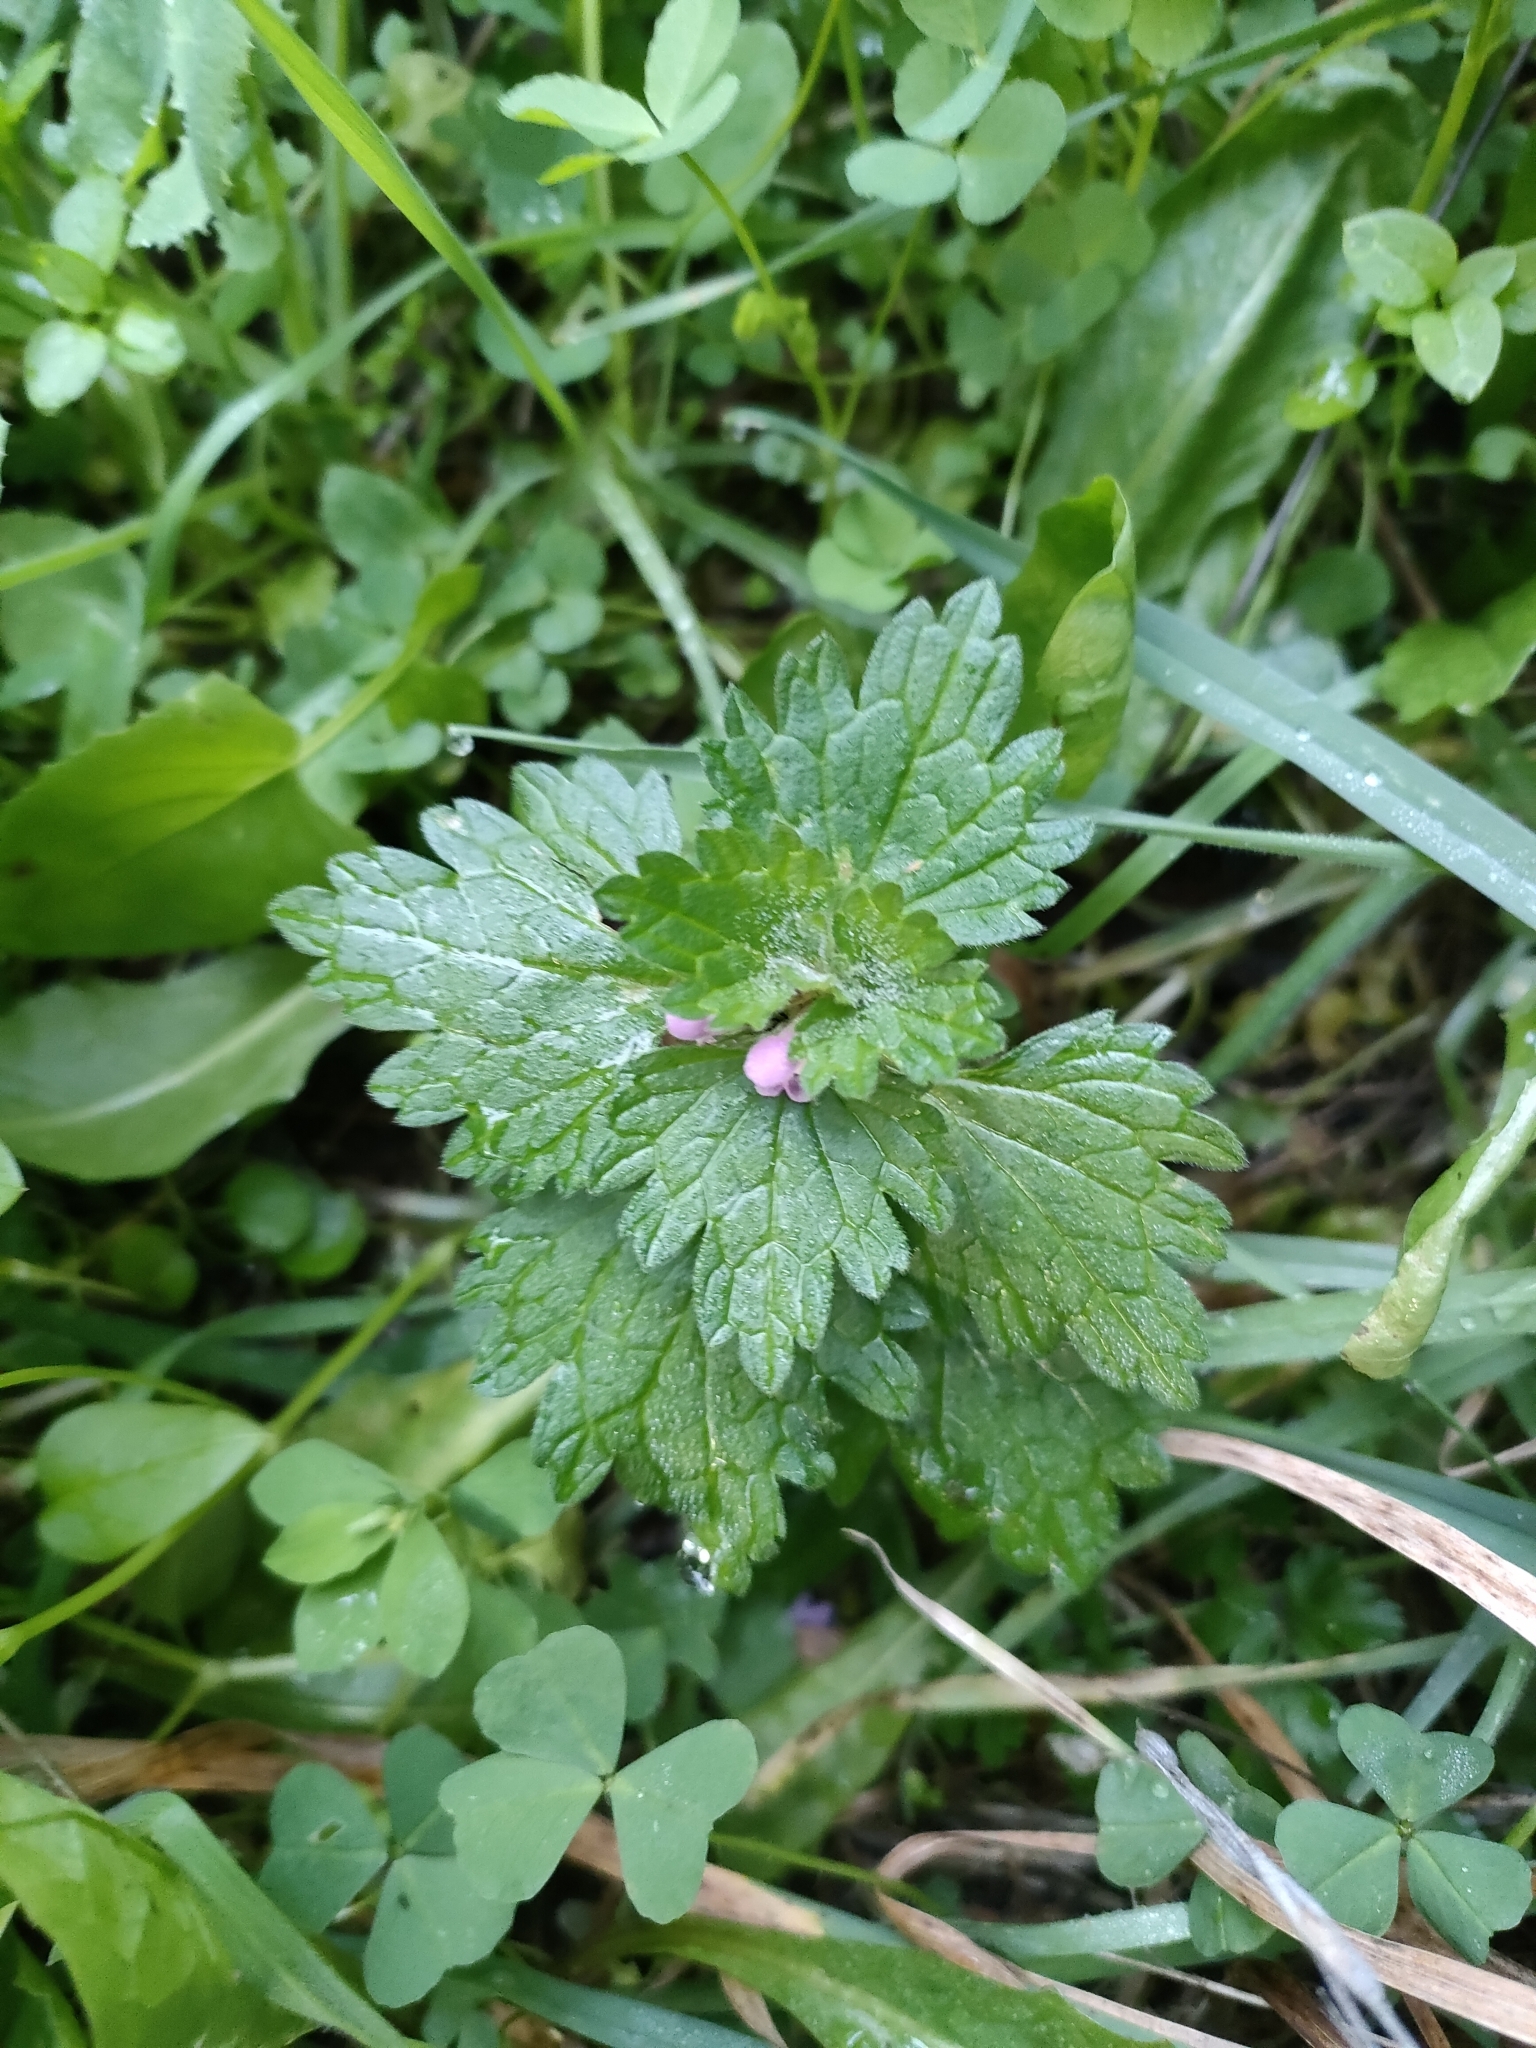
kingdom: Plantae
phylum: Tracheophyta
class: Magnoliopsida
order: Lamiales
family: Lamiaceae
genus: Lamium
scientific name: Lamium hybridum
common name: Cut-leaved dead-nettle
